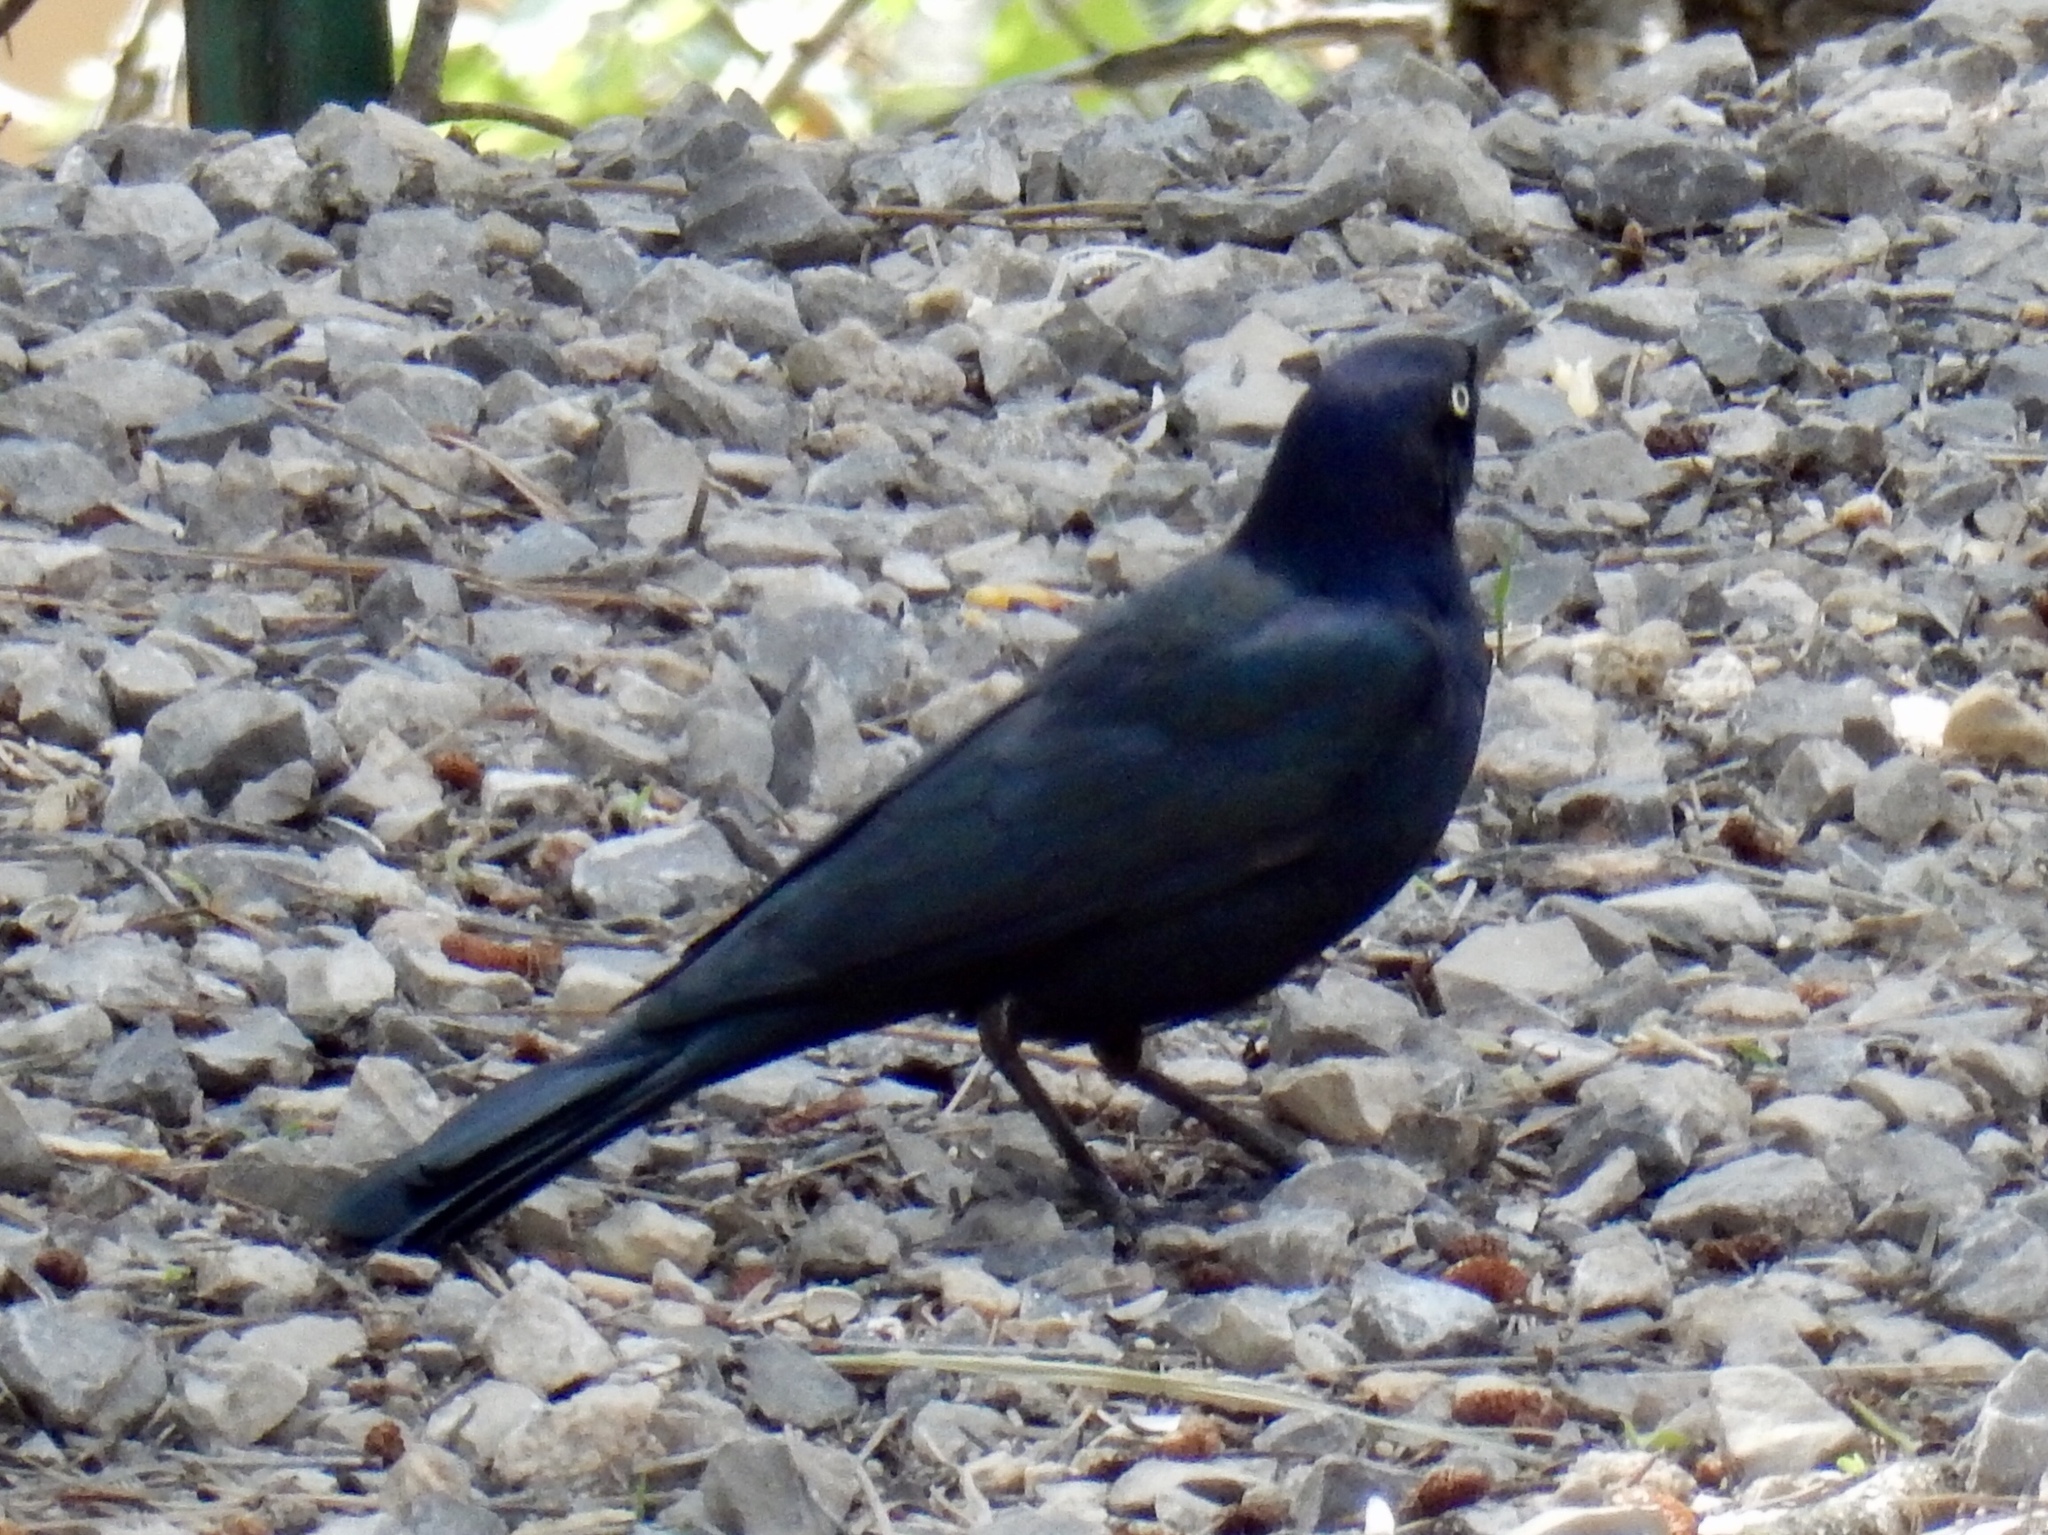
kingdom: Animalia
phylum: Chordata
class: Aves
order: Passeriformes
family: Icteridae
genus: Euphagus
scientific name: Euphagus cyanocephalus
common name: Brewer's blackbird
